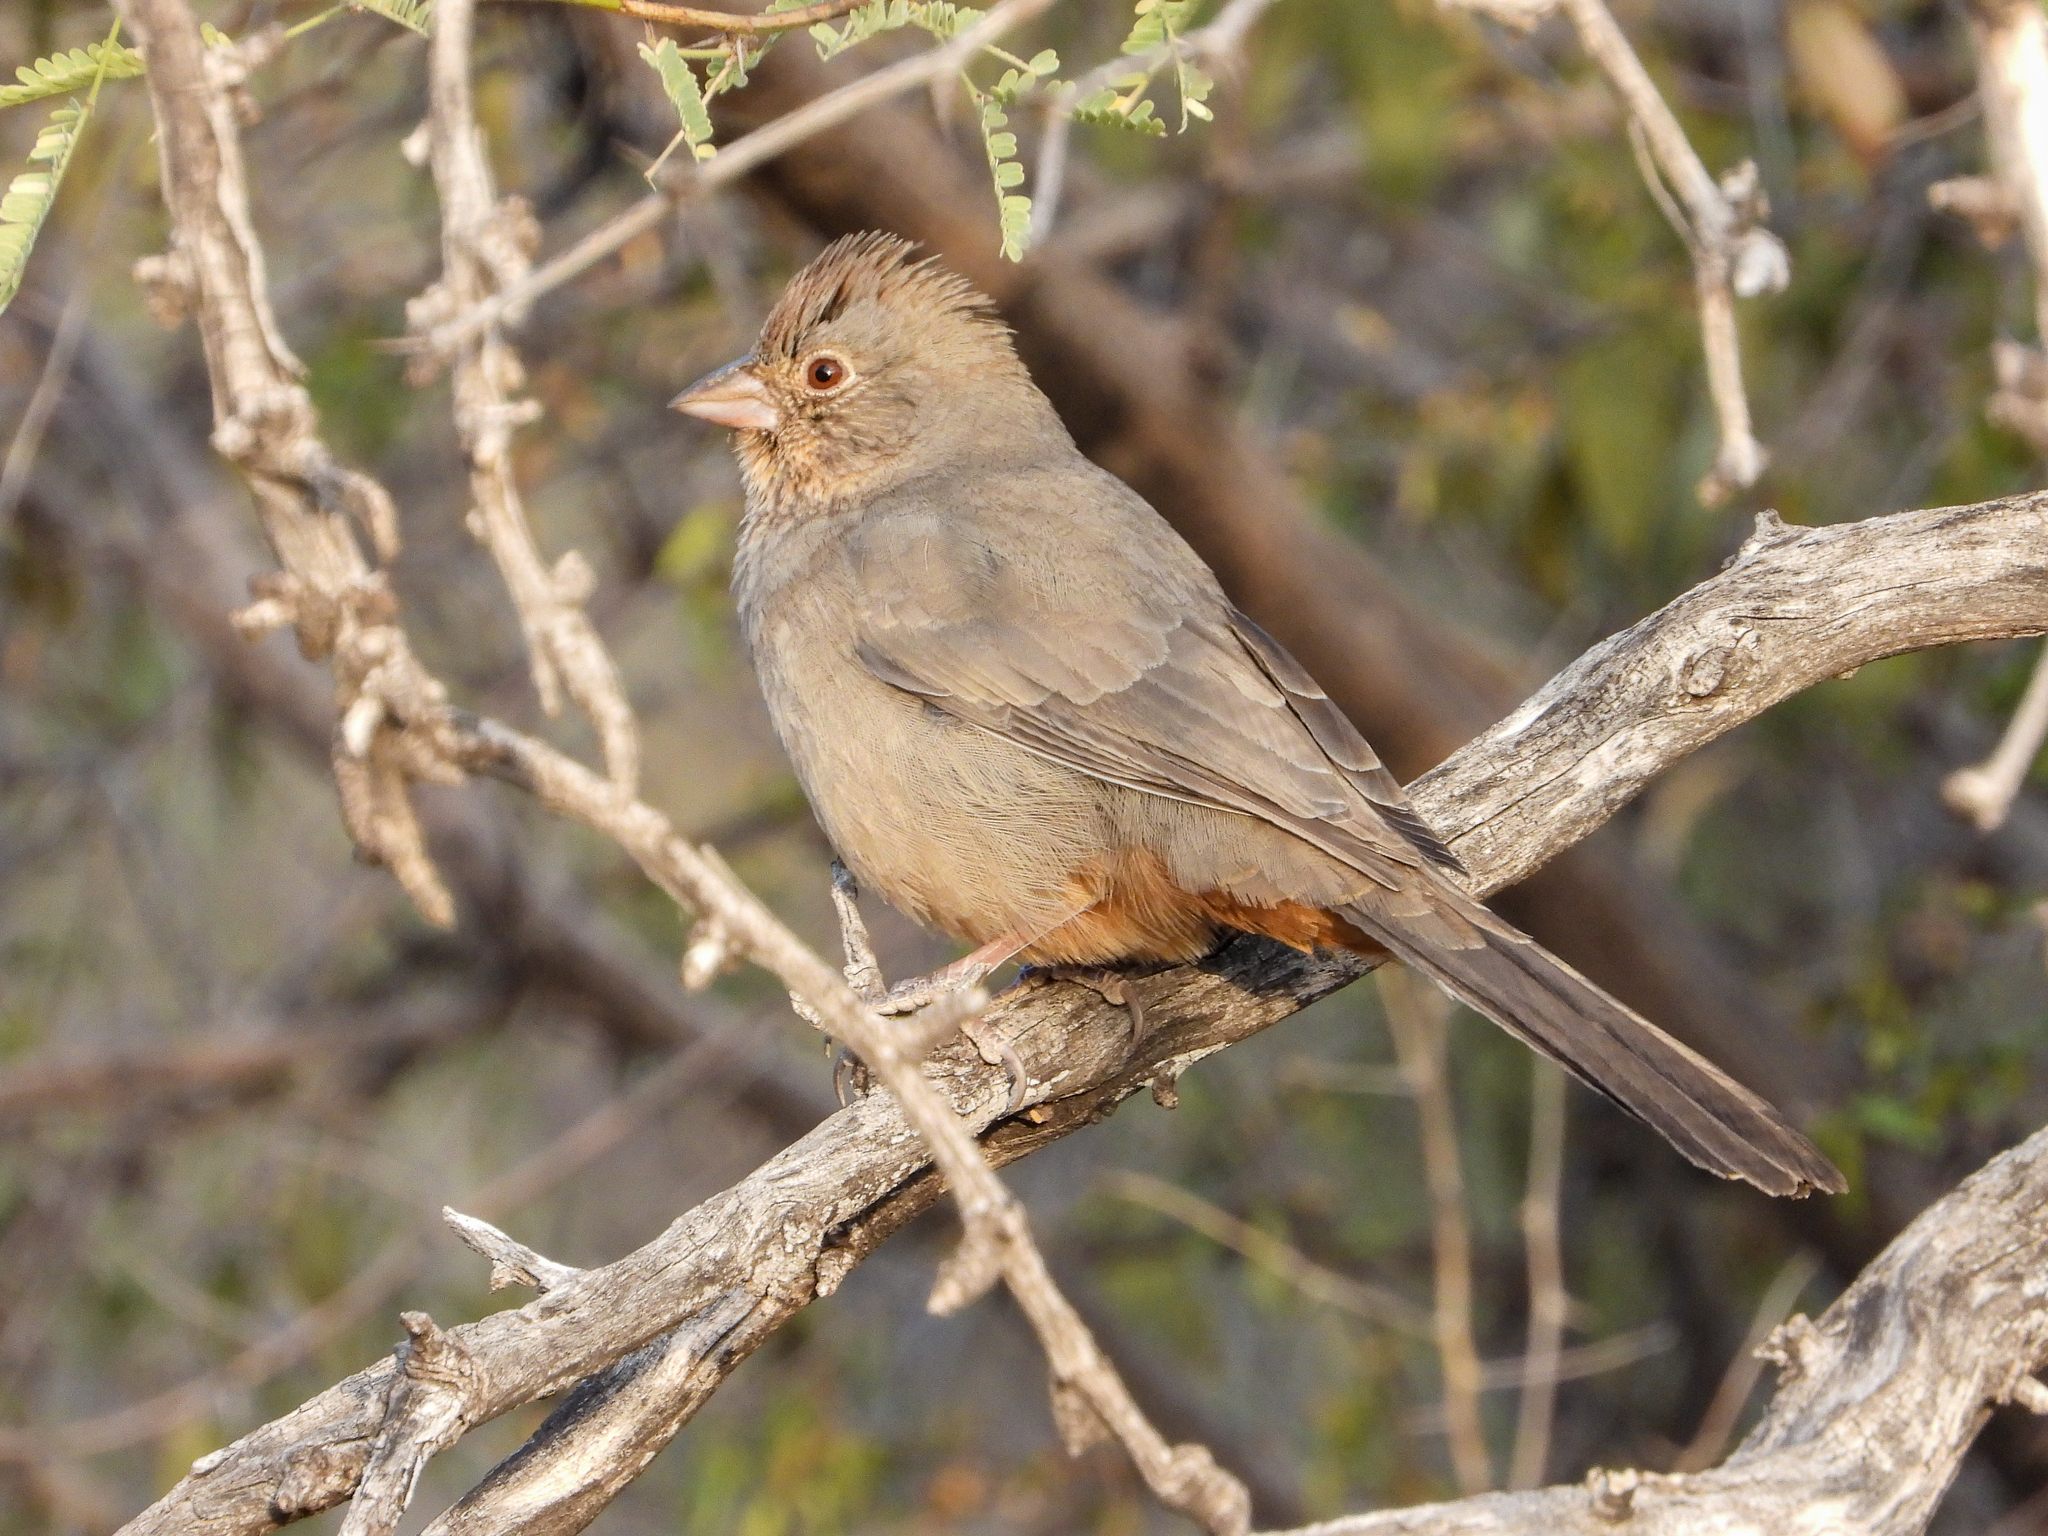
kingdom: Animalia
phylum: Chordata
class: Aves
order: Passeriformes
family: Passerellidae
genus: Melozone
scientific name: Melozone fusca
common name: Canyon towhee
